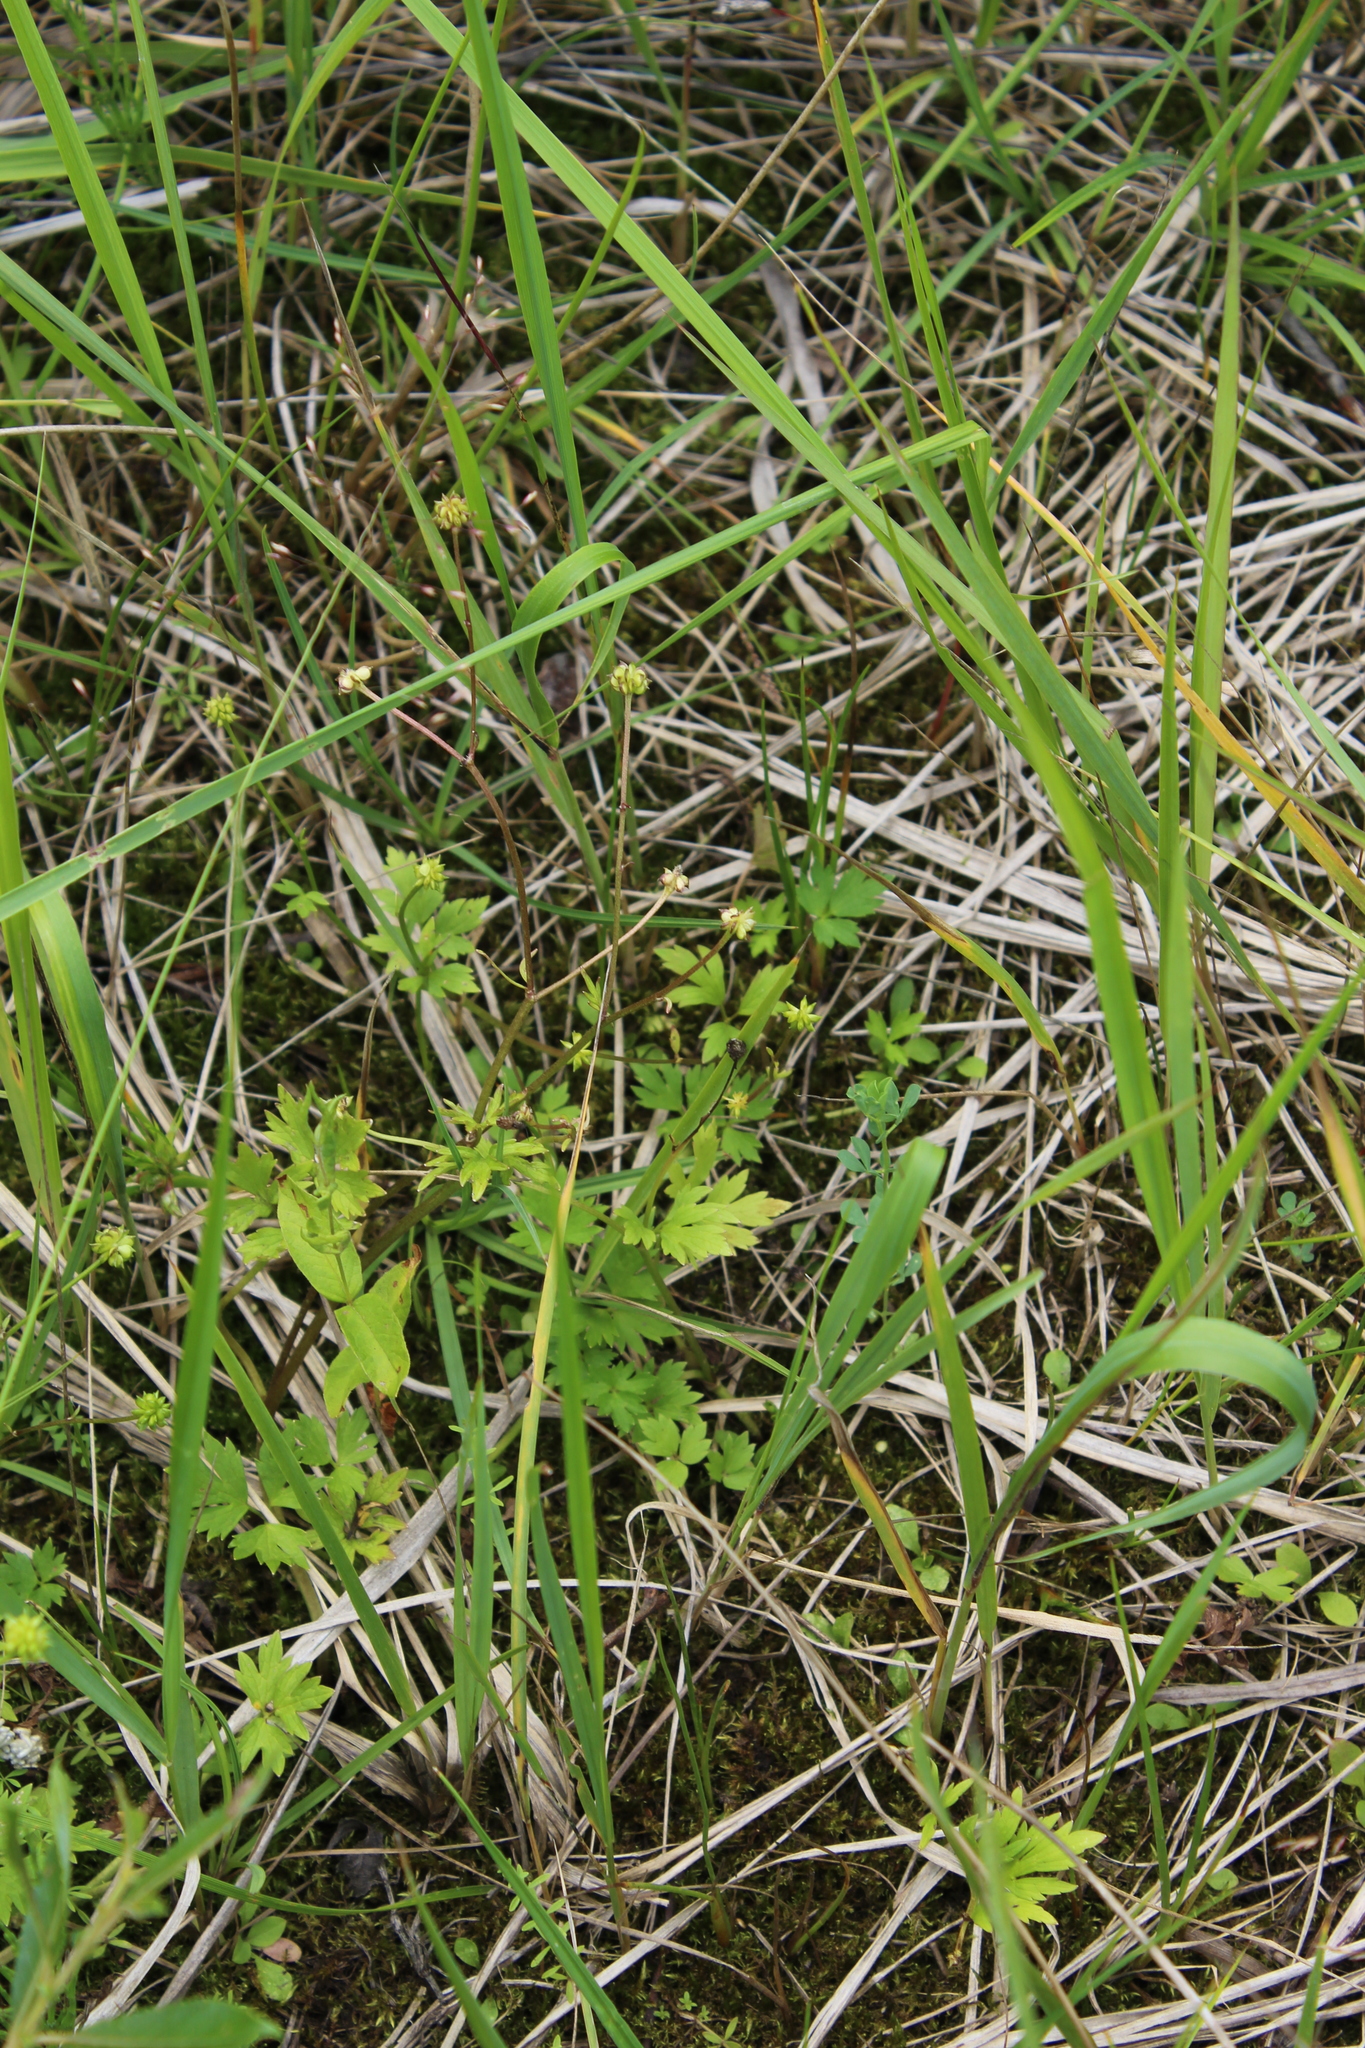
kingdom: Plantae
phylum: Tracheophyta
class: Magnoliopsida
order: Ranunculales
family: Ranunculaceae
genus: Ranunculus
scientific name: Ranunculus repens
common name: Creeping buttercup
